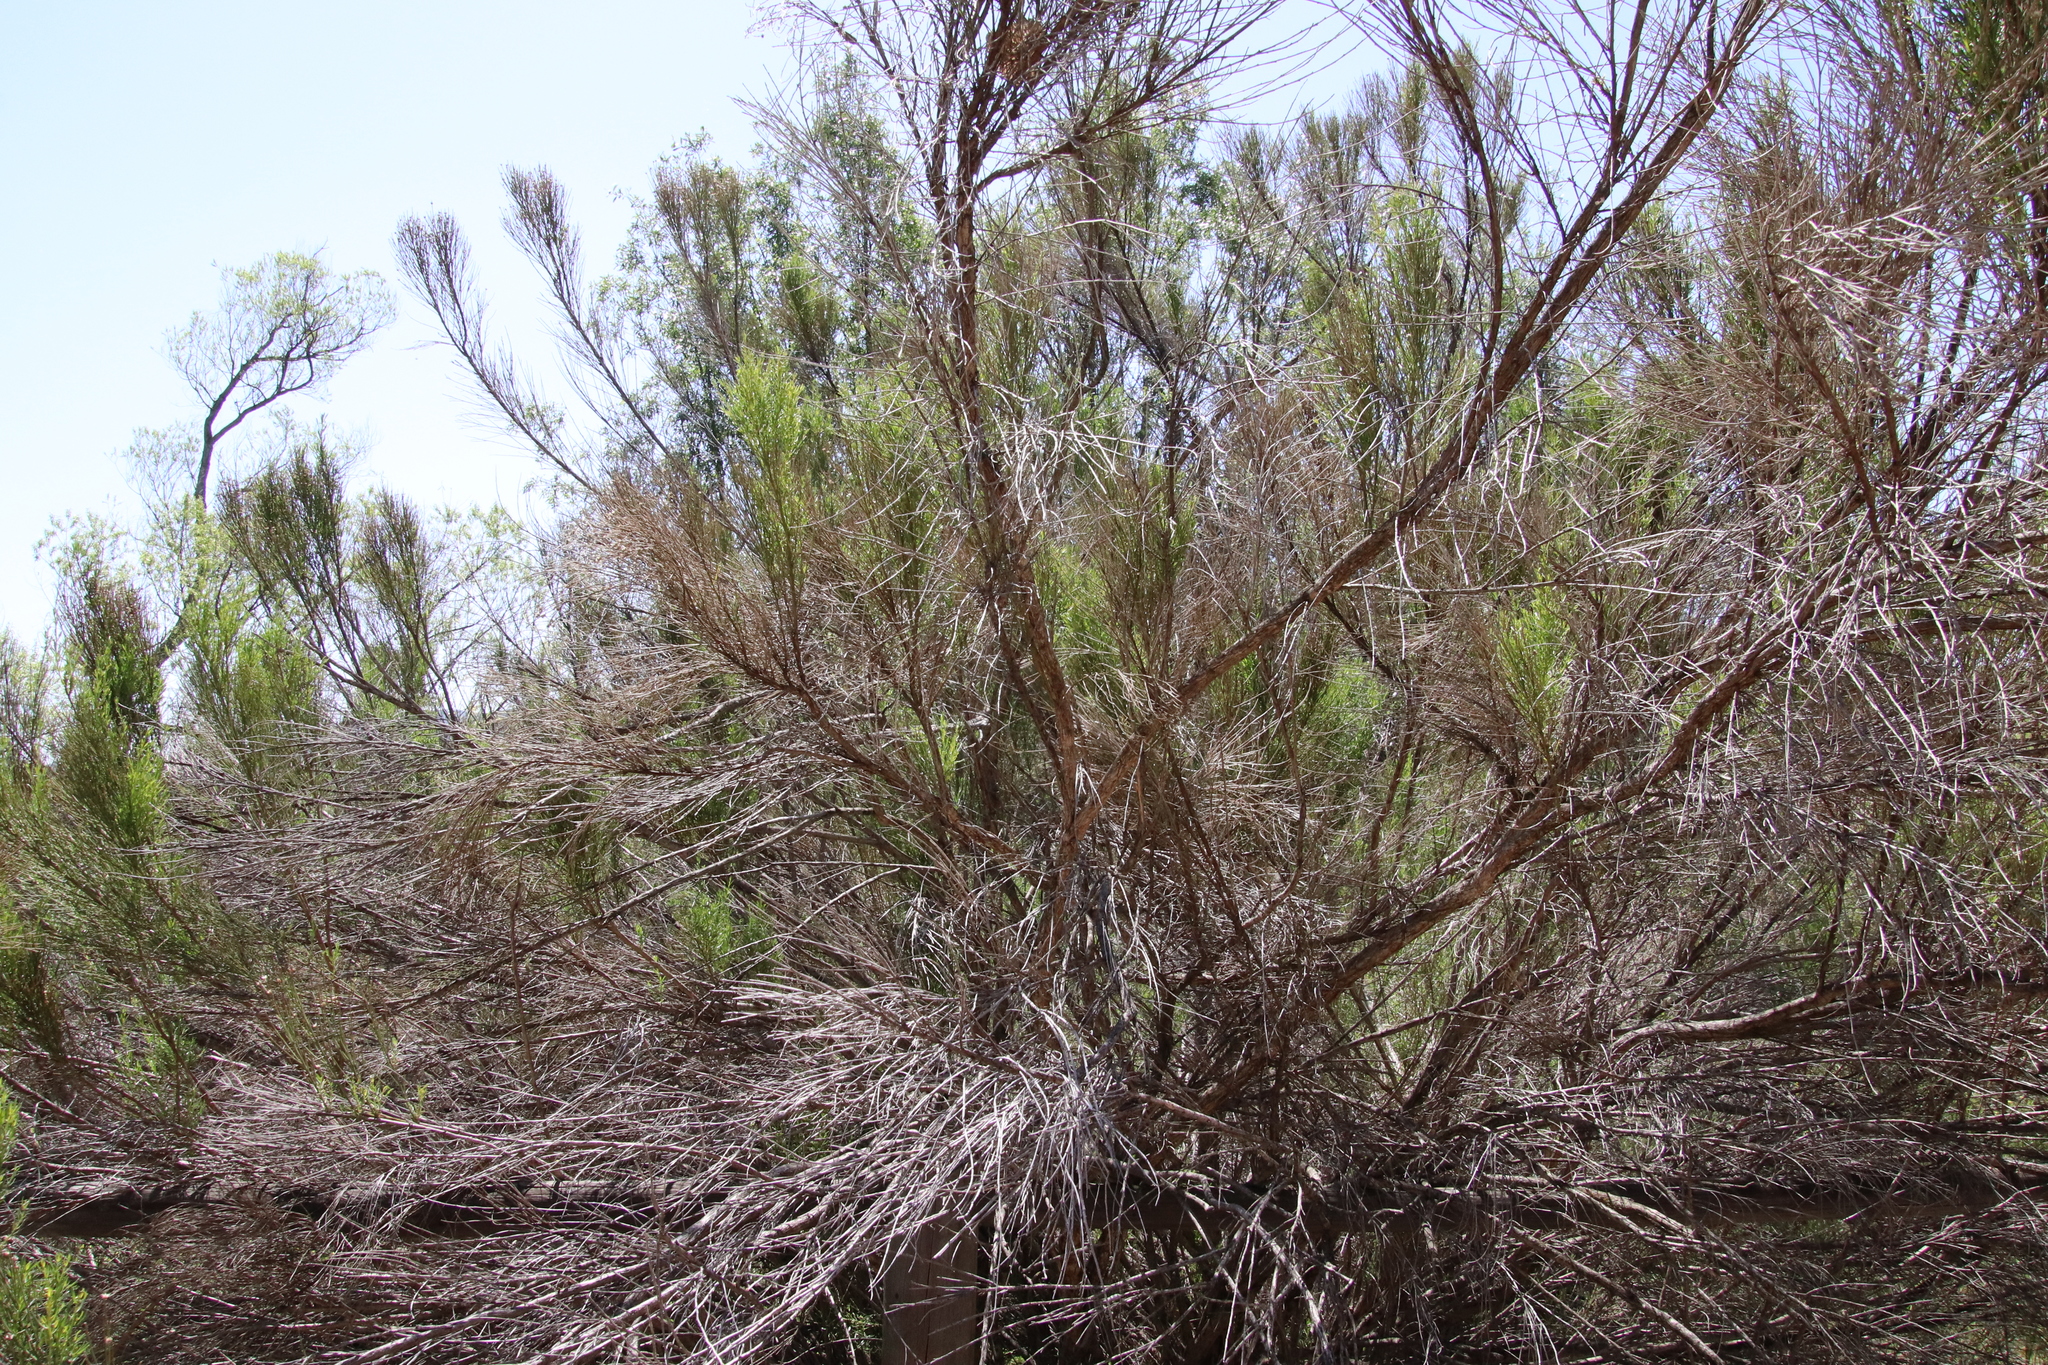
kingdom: Plantae
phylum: Tracheophyta
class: Magnoliopsida
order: Asterales
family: Asteraceae
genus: Baccharis
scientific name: Baccharis sarothroides
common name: Desert-broom
